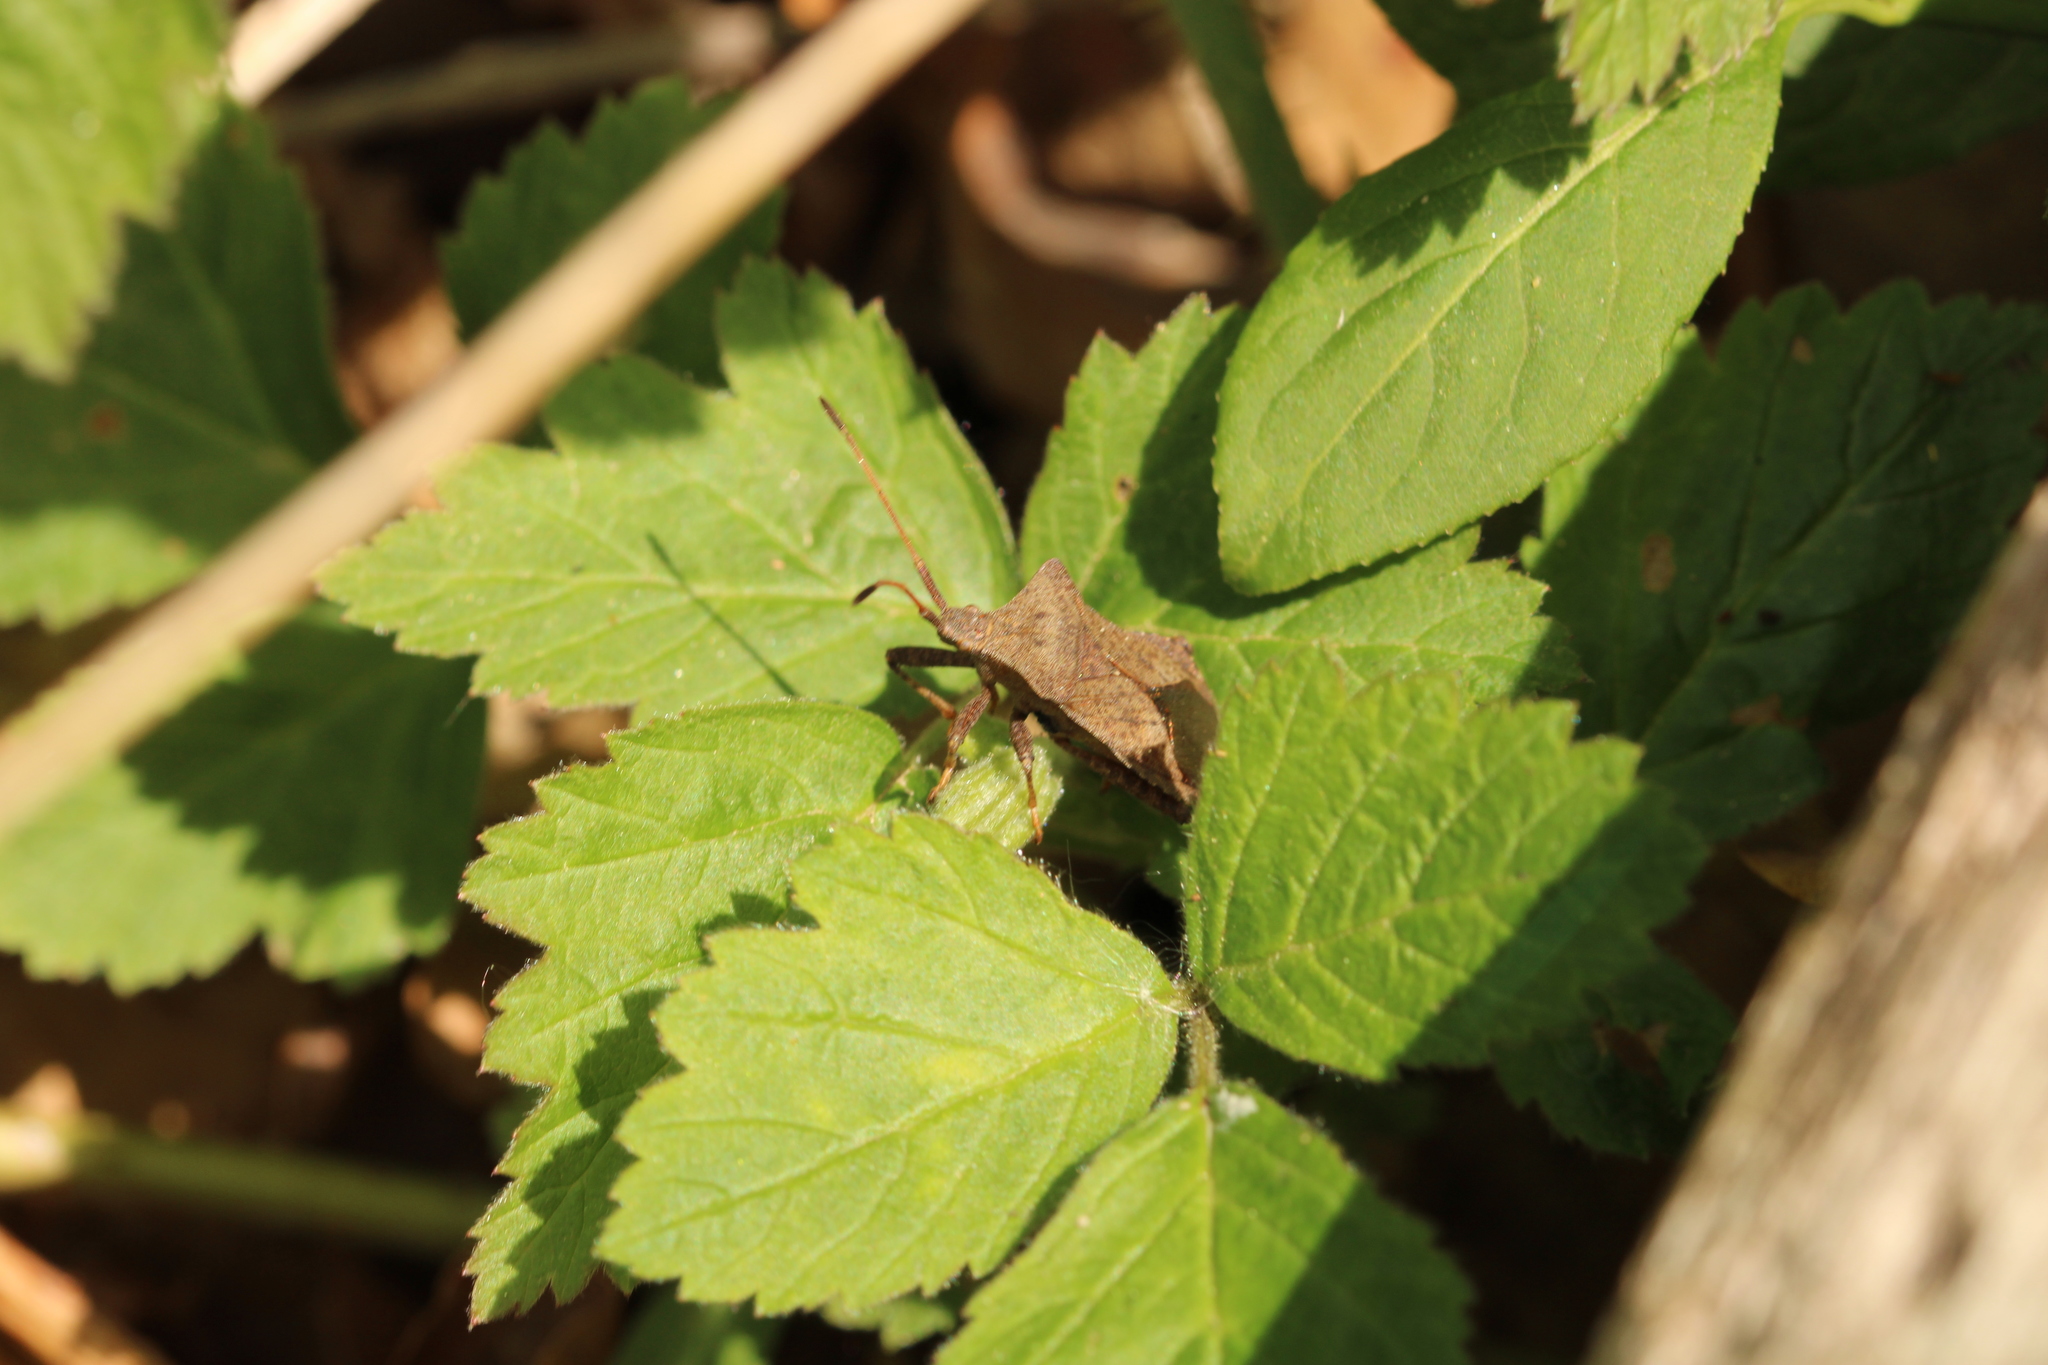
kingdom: Animalia
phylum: Arthropoda
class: Insecta
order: Hemiptera
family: Coreidae
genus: Coreus
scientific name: Coreus marginatus
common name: Dock bug
